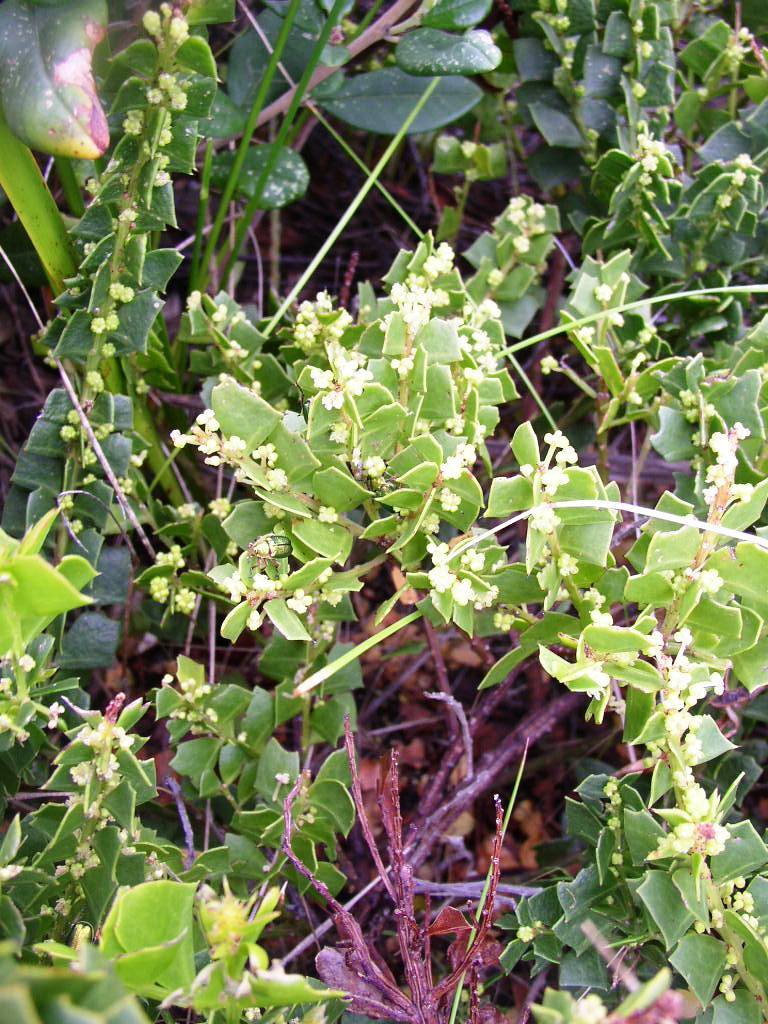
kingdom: Plantae
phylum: Tracheophyta
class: Magnoliopsida
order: Fabales
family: Fabaceae
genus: Acacia
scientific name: Acacia trapezoidea
